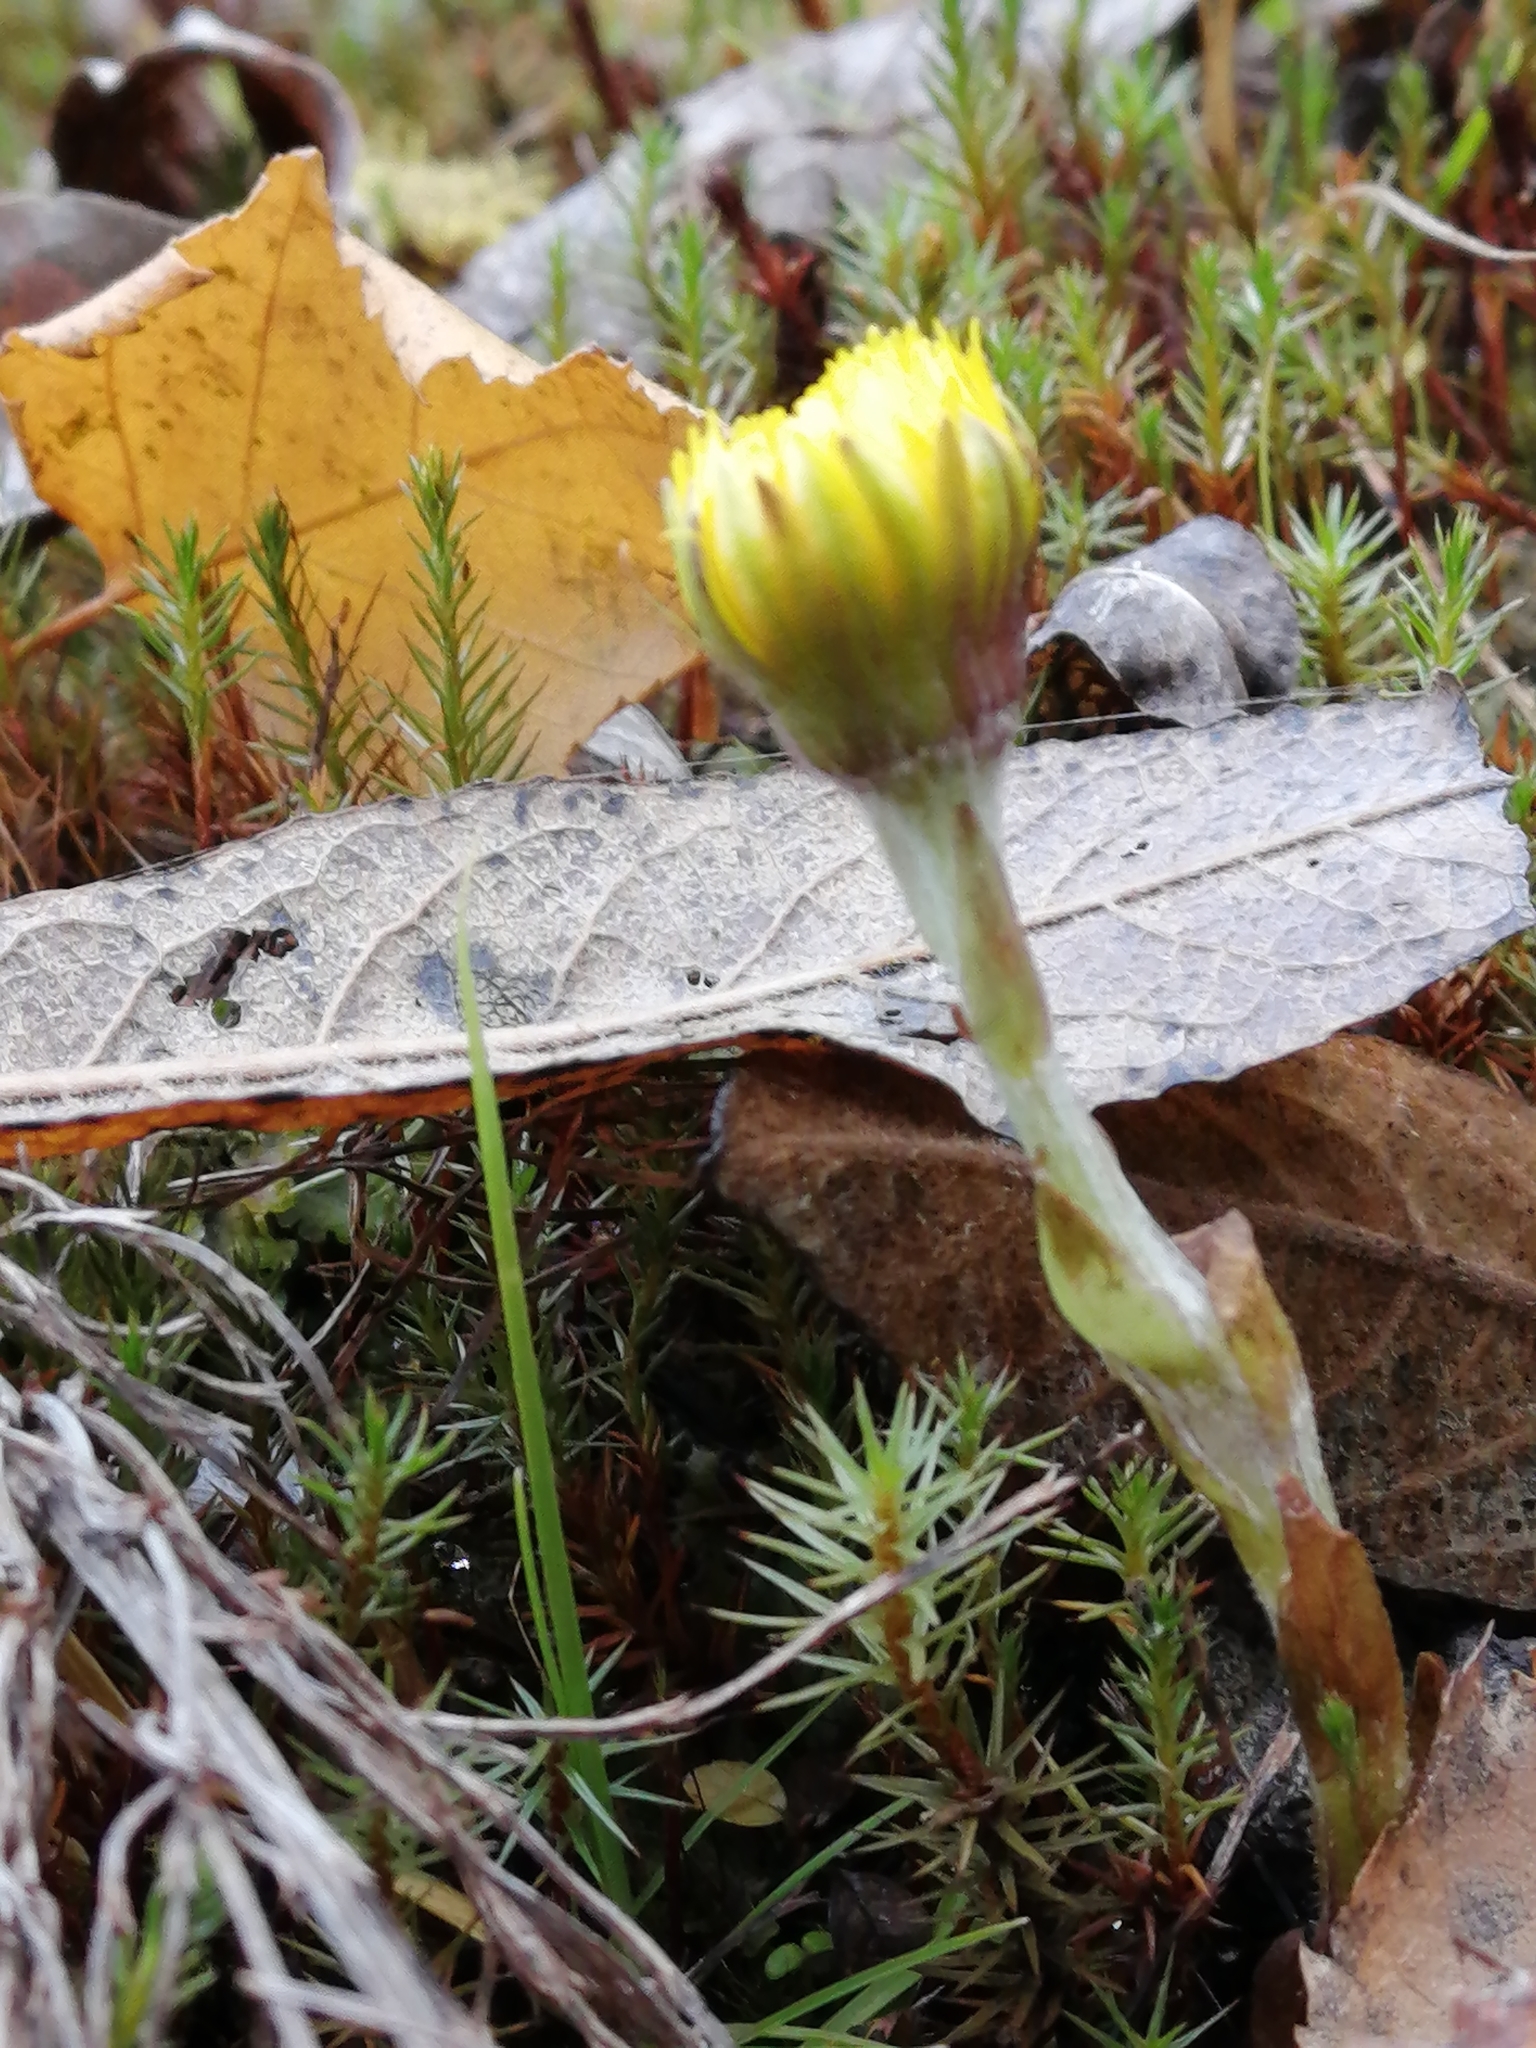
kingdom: Plantae
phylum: Tracheophyta
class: Magnoliopsida
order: Asterales
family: Asteraceae
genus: Tussilago
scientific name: Tussilago farfara
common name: Coltsfoot
